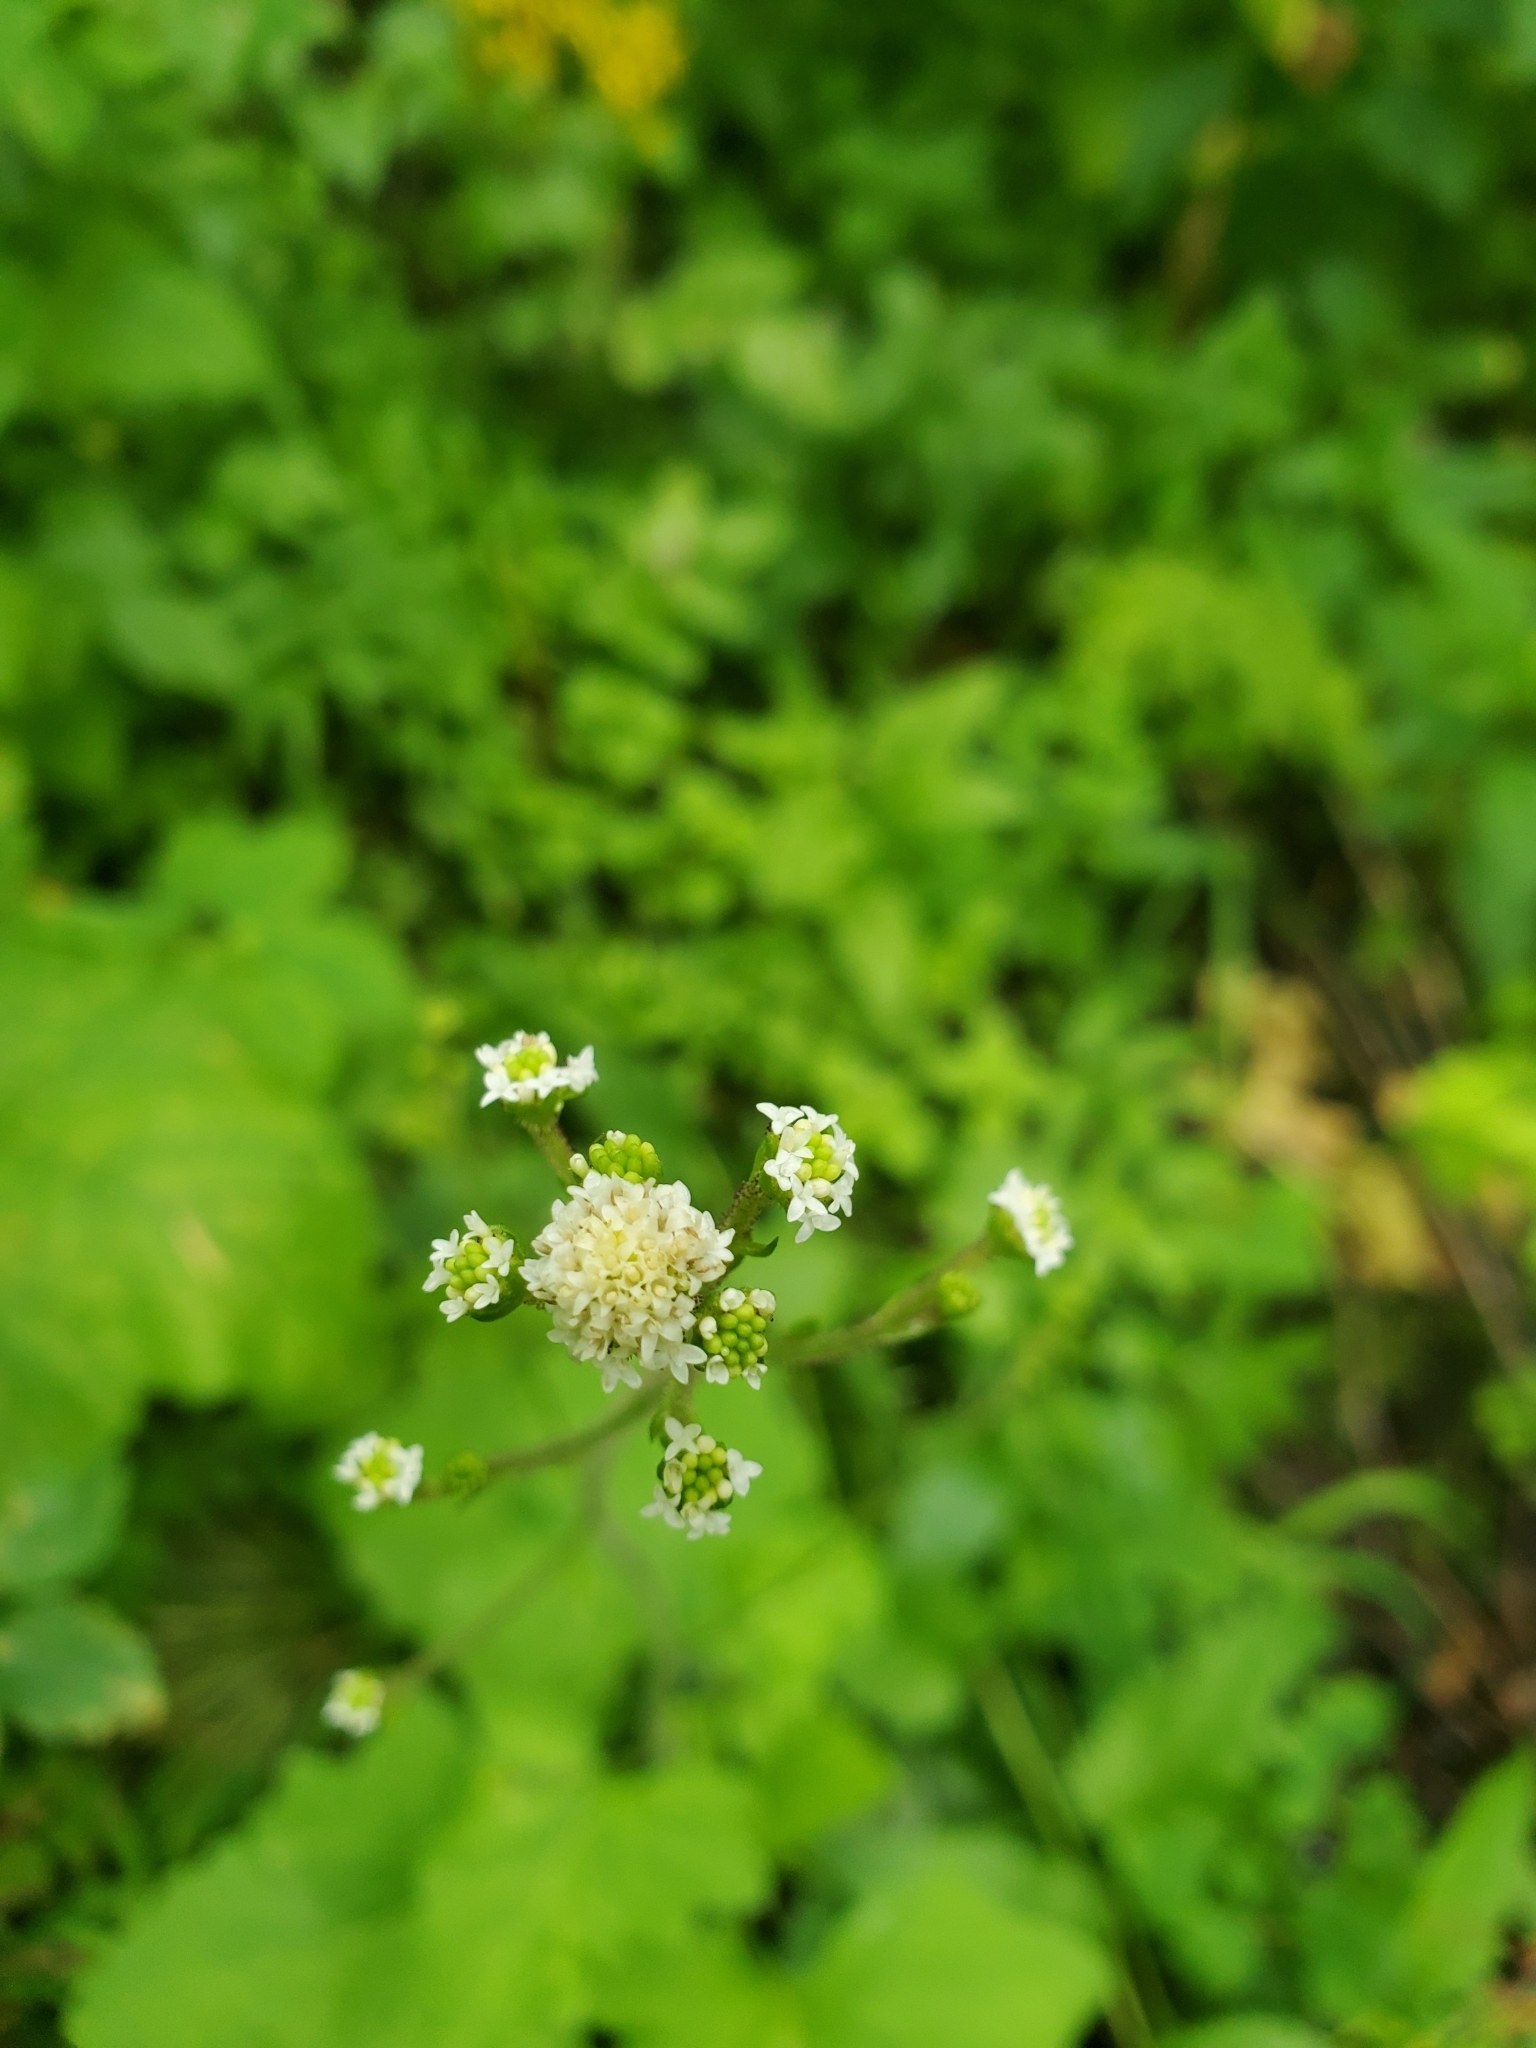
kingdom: Plantae
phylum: Tracheophyta
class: Magnoliopsida
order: Asterales
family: Asteraceae
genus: Adenocaulon
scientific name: Adenocaulon bicolor
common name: Trailplant
